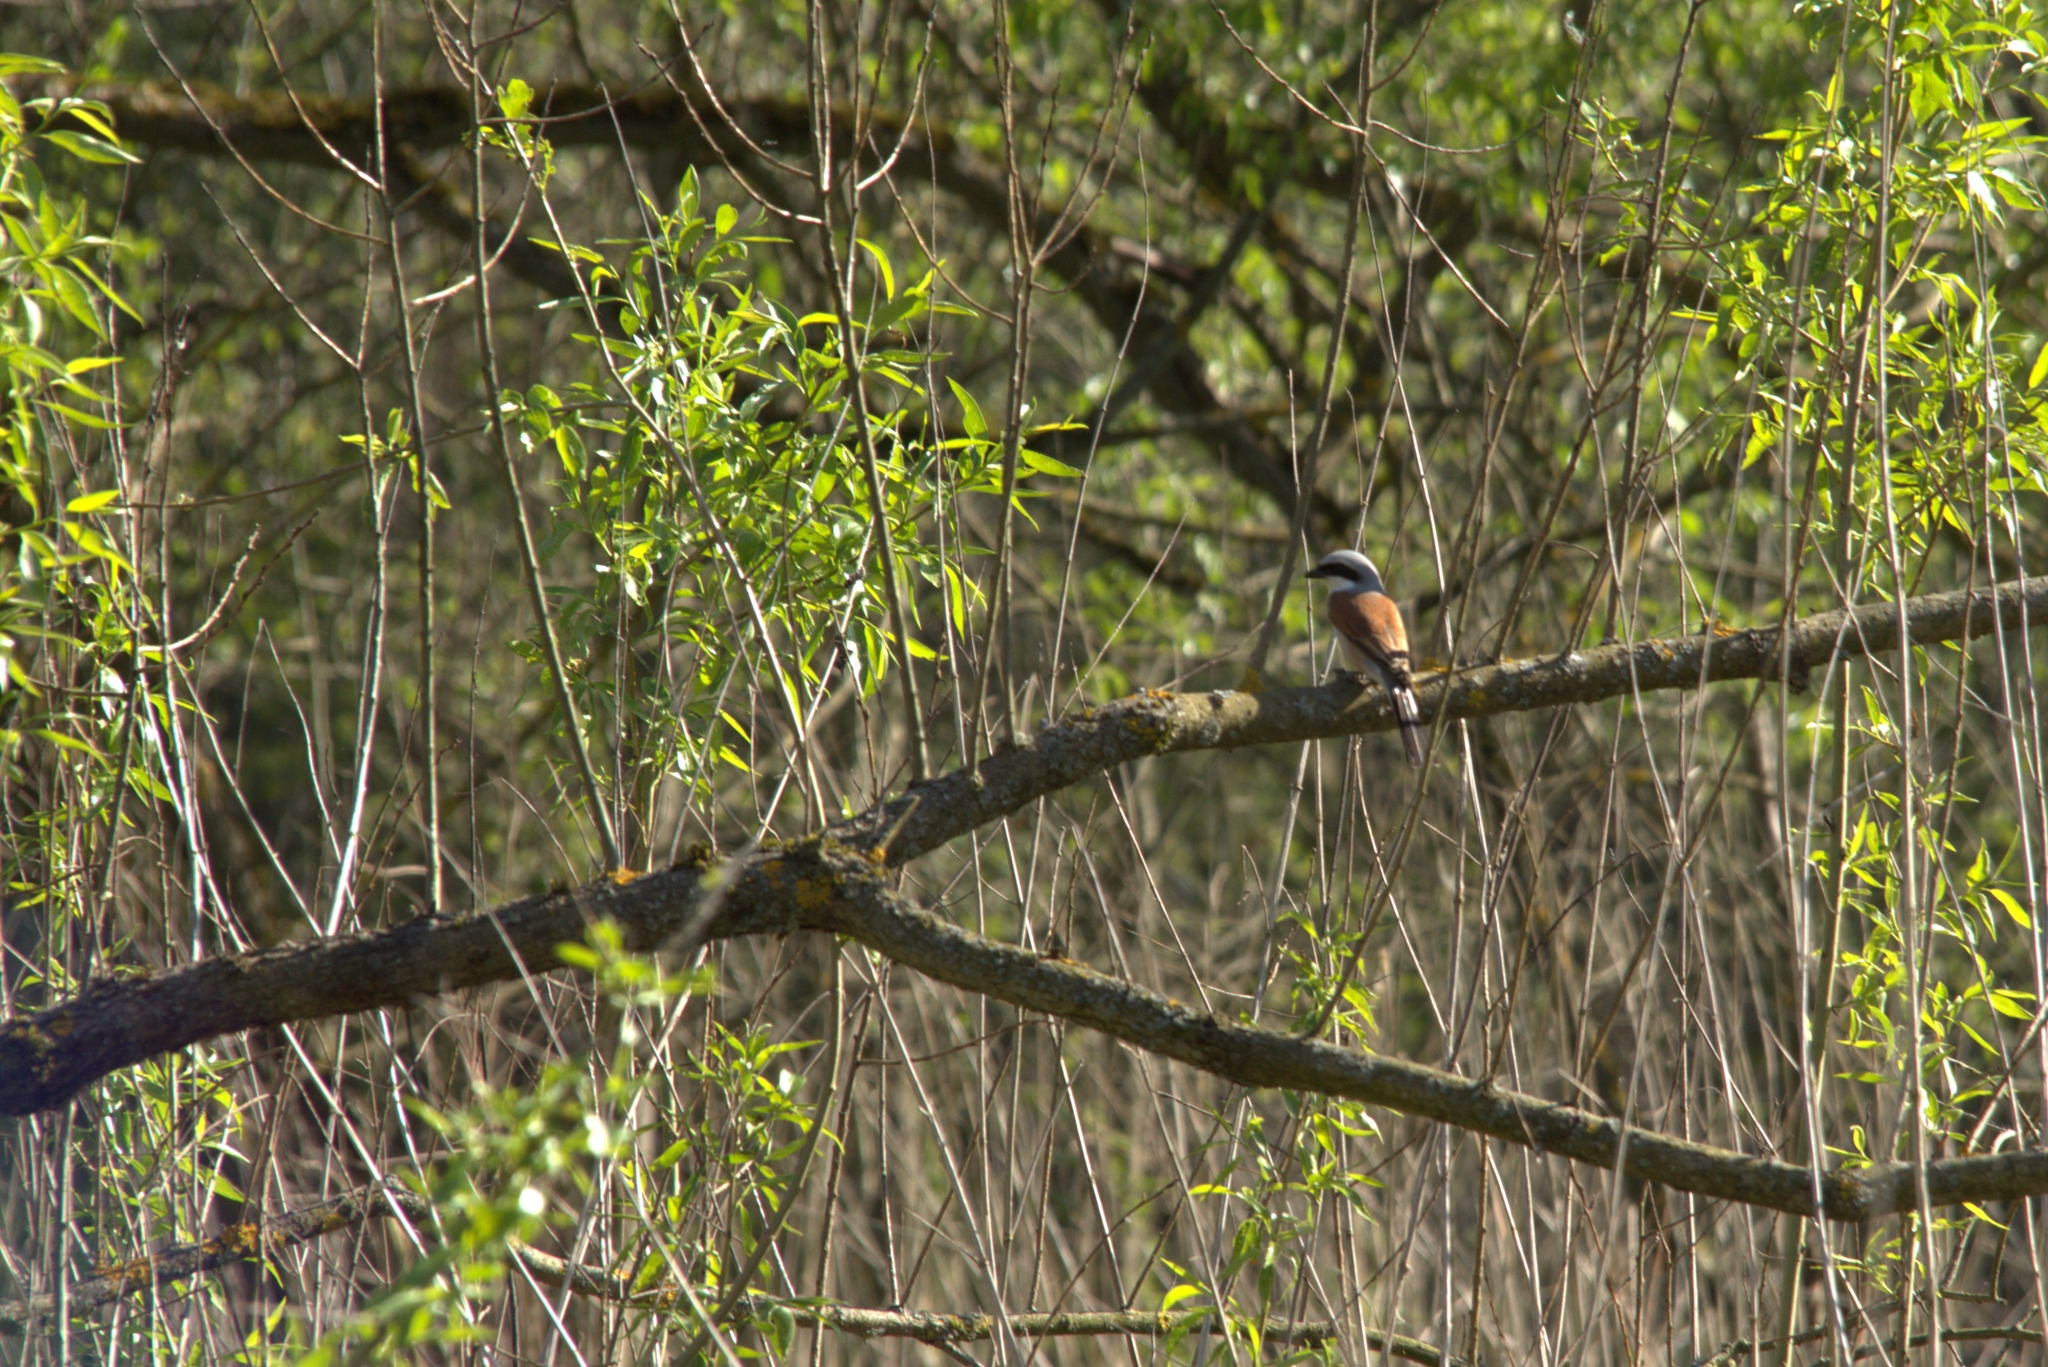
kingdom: Animalia
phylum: Chordata
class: Aves
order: Passeriformes
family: Laniidae
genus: Lanius
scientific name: Lanius collurio
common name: Red-backed shrike
